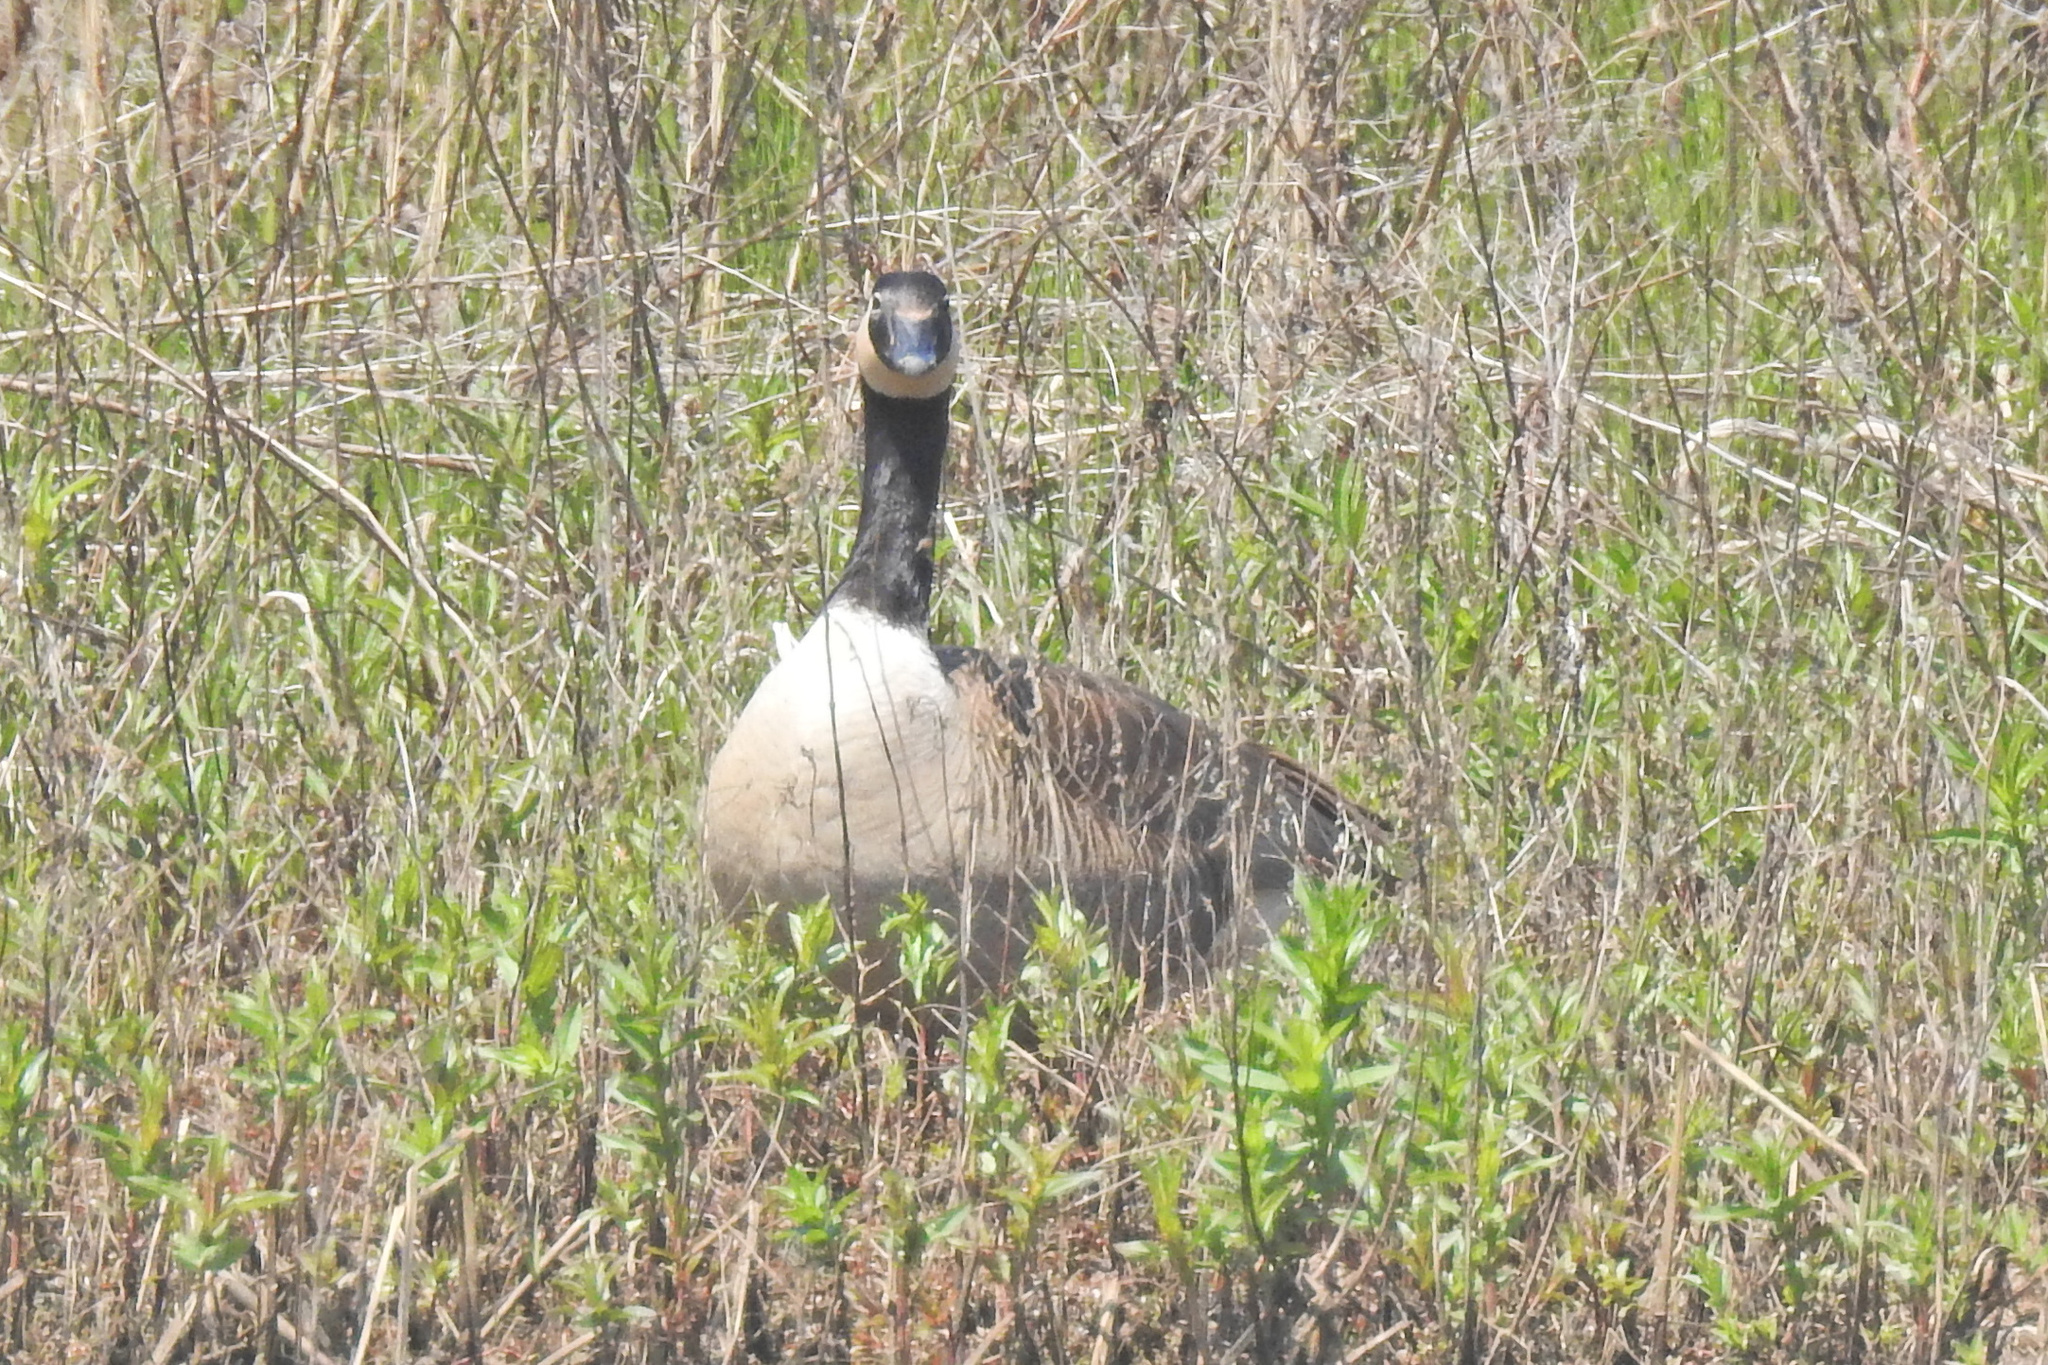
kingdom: Animalia
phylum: Chordata
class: Aves
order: Anseriformes
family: Anatidae
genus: Branta
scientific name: Branta canadensis
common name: Canada goose
